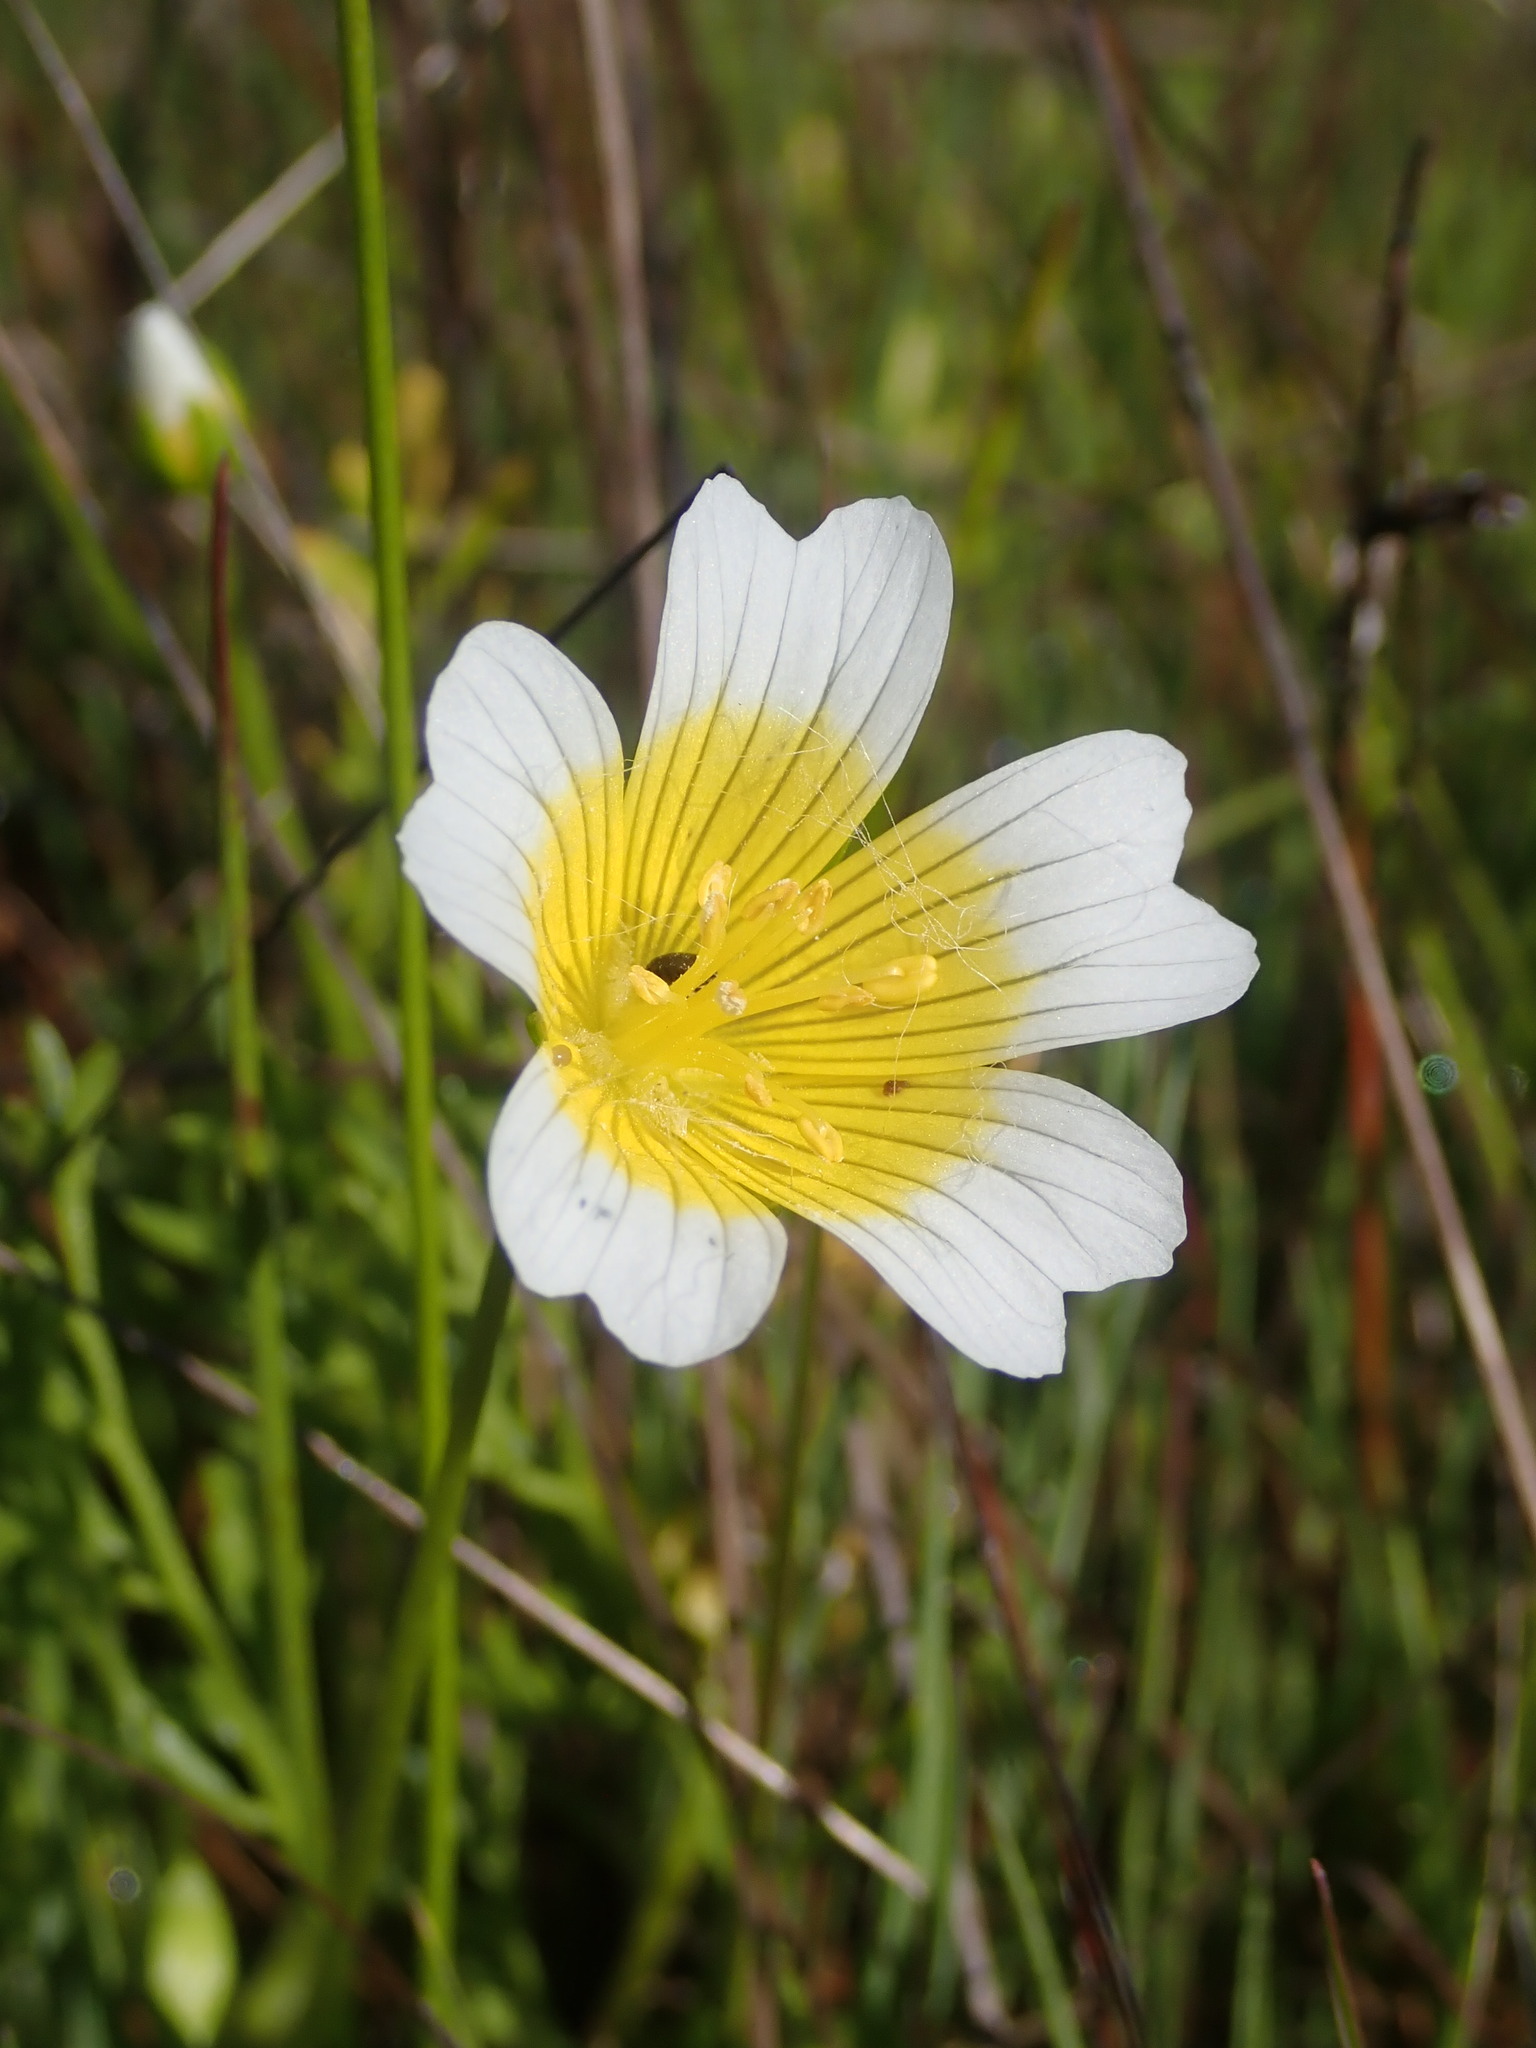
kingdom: Plantae
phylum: Tracheophyta
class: Magnoliopsida
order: Brassicales
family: Limnanthaceae
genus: Limnanthes
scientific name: Limnanthes douglasii
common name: Meadow-foam
